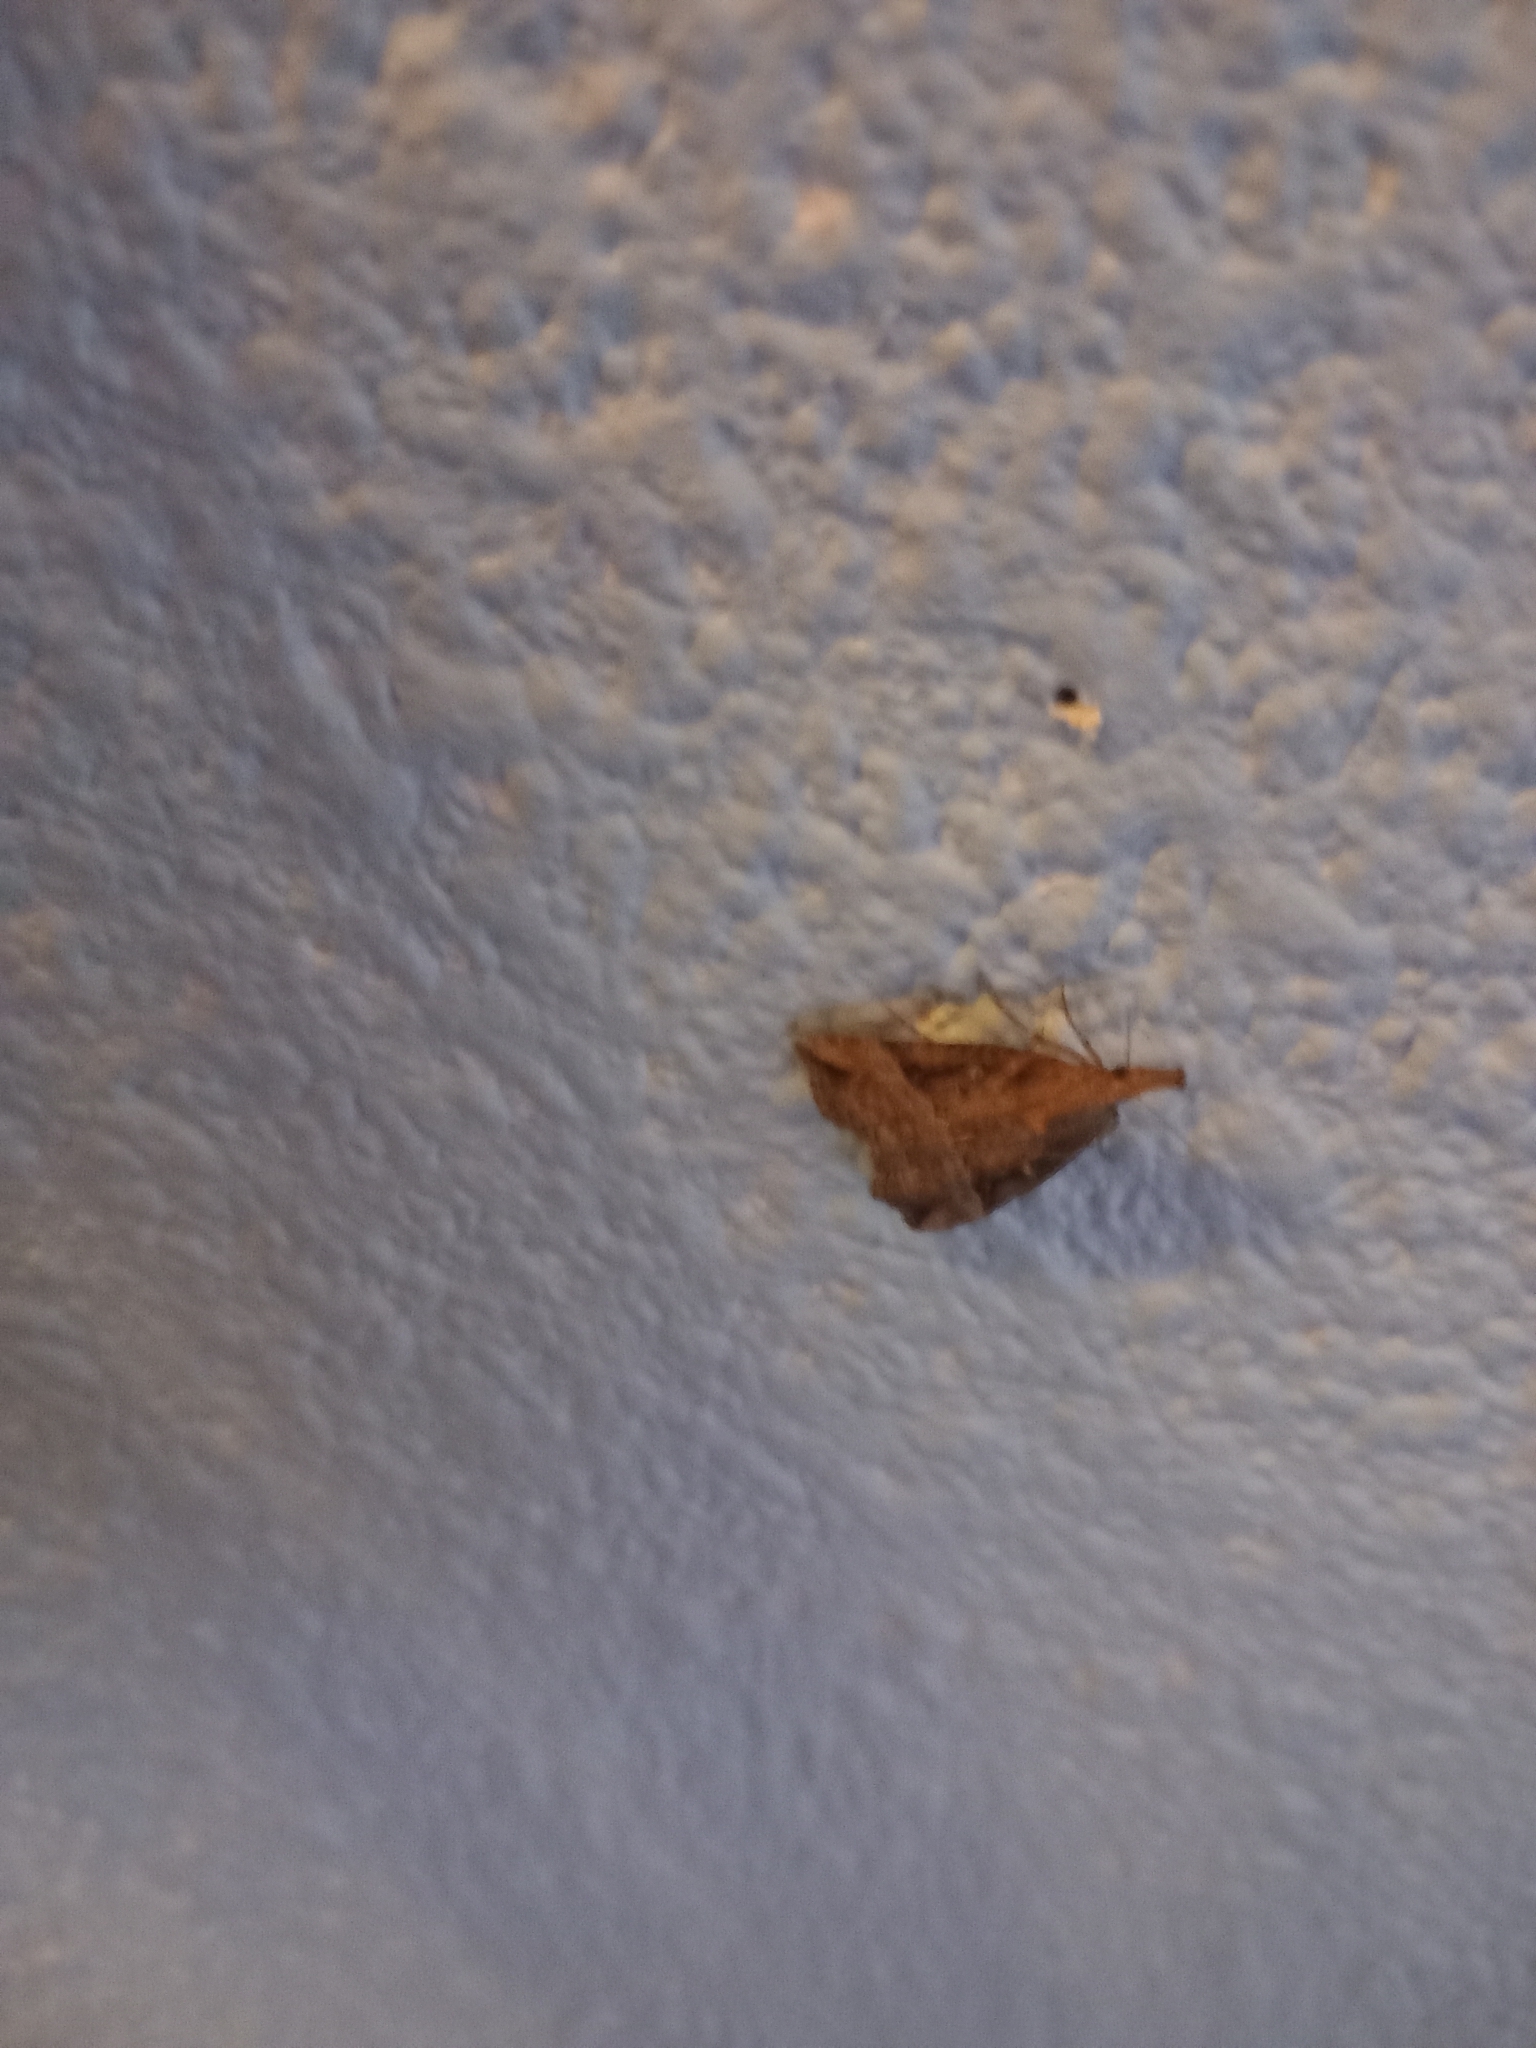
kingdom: Animalia
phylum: Arthropoda
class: Insecta
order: Lepidoptera
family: Erebidae
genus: Hypena
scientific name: Hypena rostralis
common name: Buttoned snout
